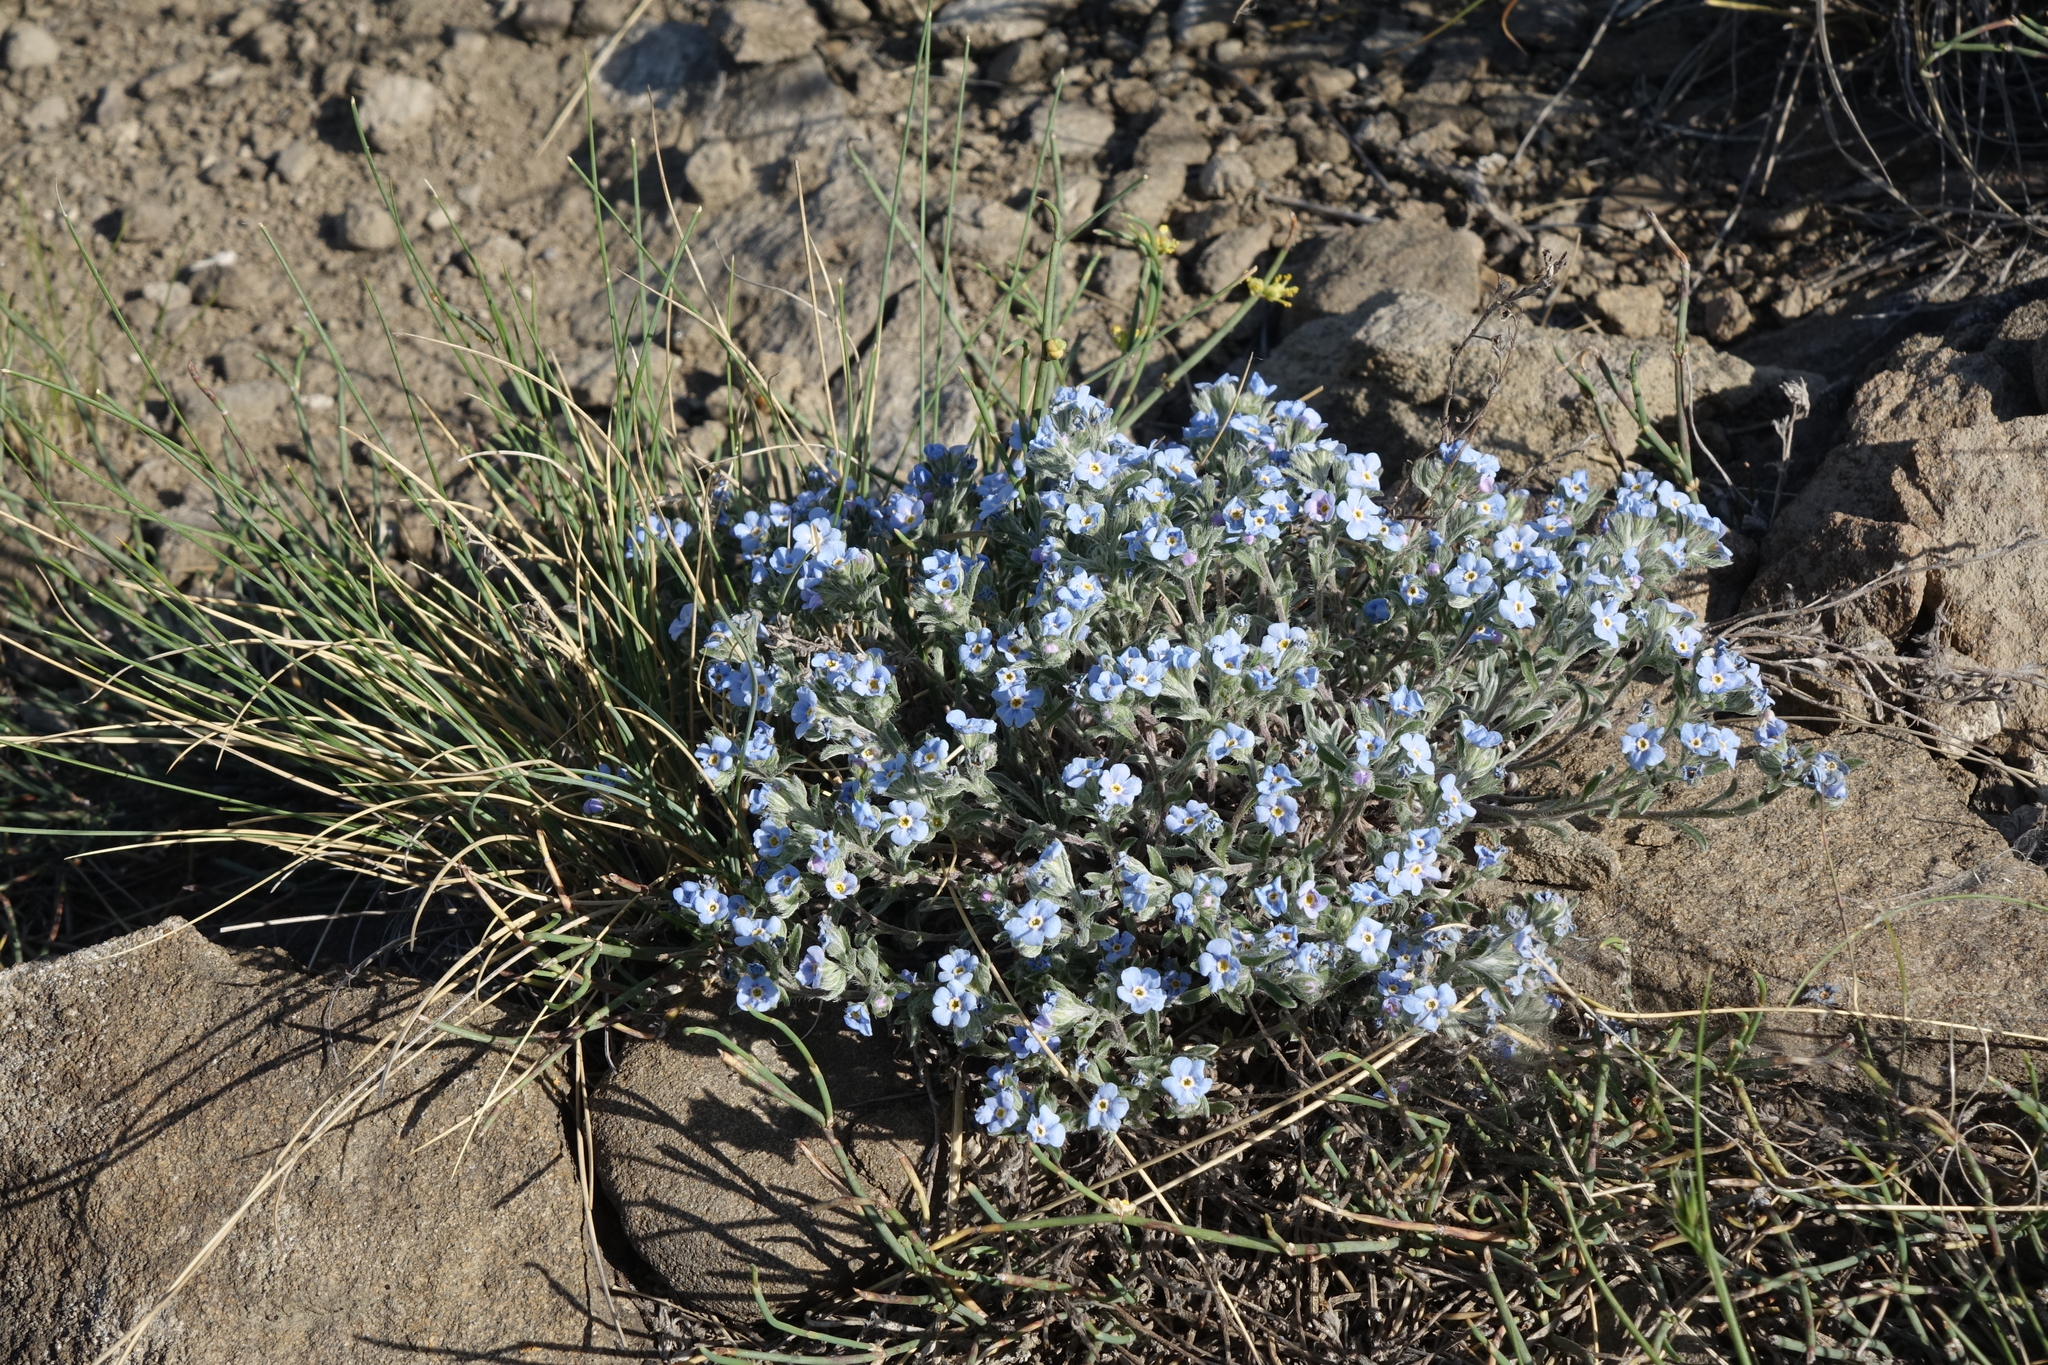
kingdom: Plantae
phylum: Tracheophyta
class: Magnoliopsida
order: Boraginales
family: Boraginaceae
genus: Eritrichium
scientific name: Eritrichium rupestre
